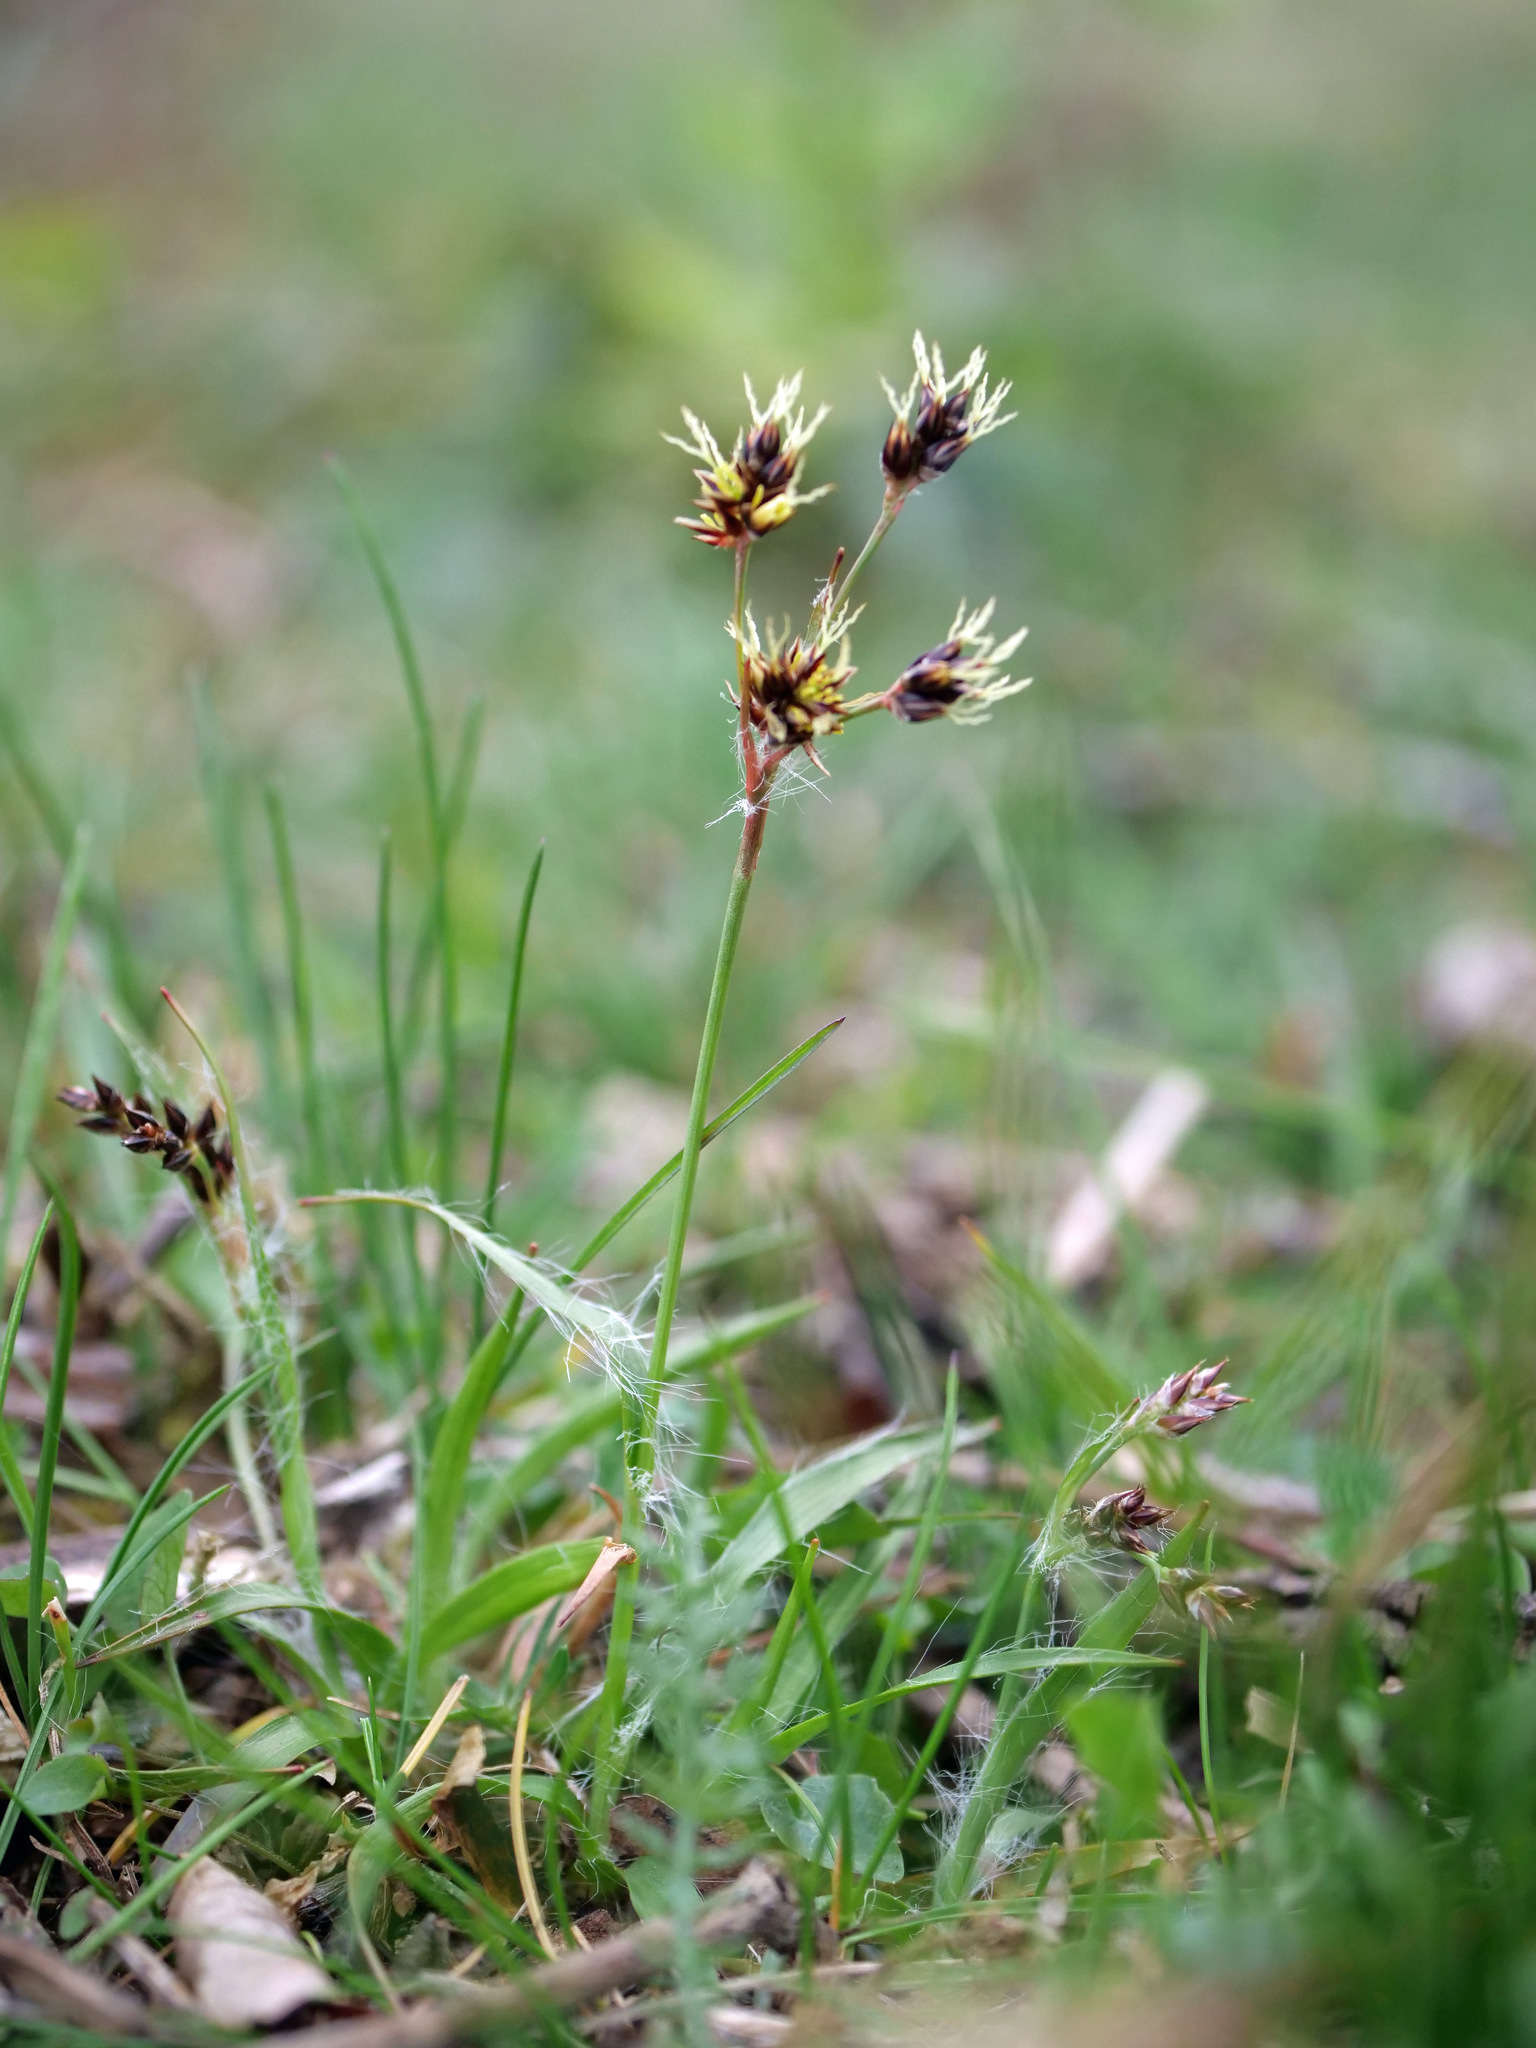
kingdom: Plantae
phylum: Tracheophyta
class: Liliopsida
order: Poales
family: Juncaceae
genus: Luzula
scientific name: Luzula campestris
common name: Field wood-rush
